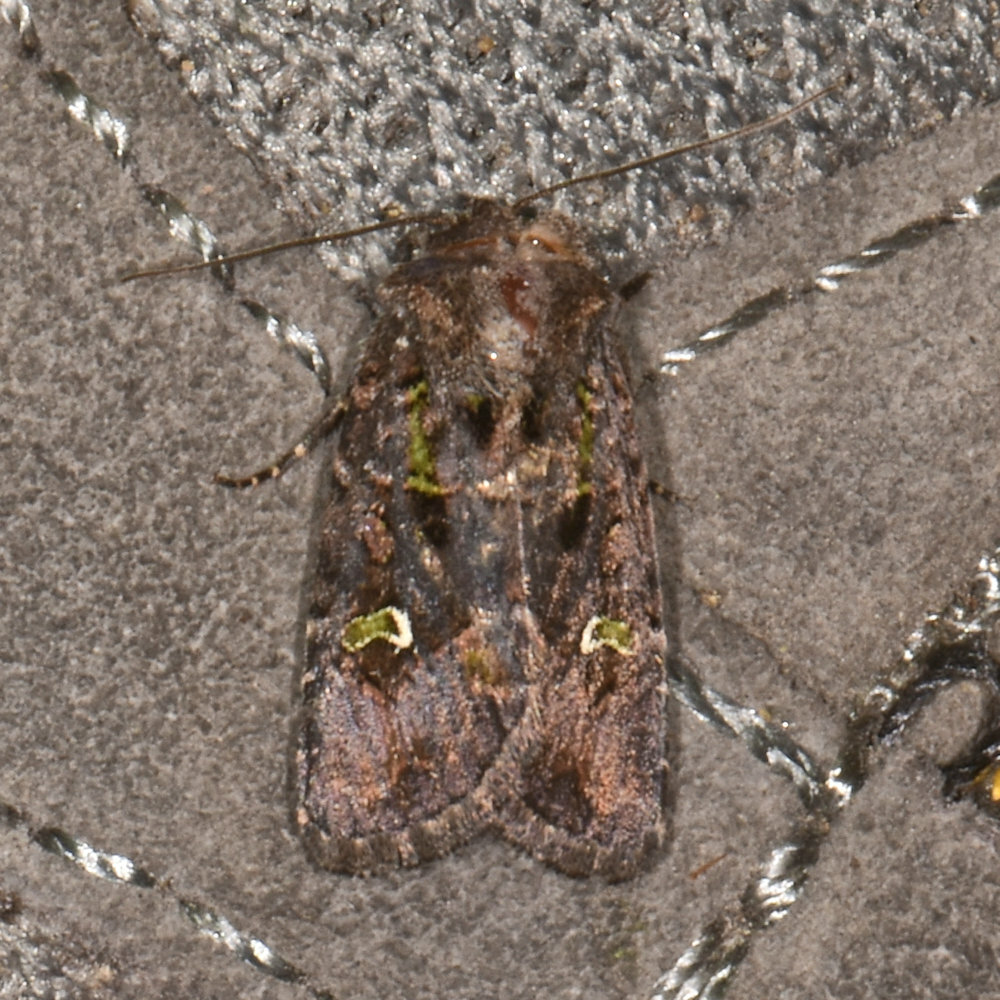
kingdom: Animalia
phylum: Arthropoda
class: Insecta
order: Lepidoptera
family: Noctuidae
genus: Lacinipolia
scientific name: Lacinipolia renigera
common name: Kidney-spotted minor
